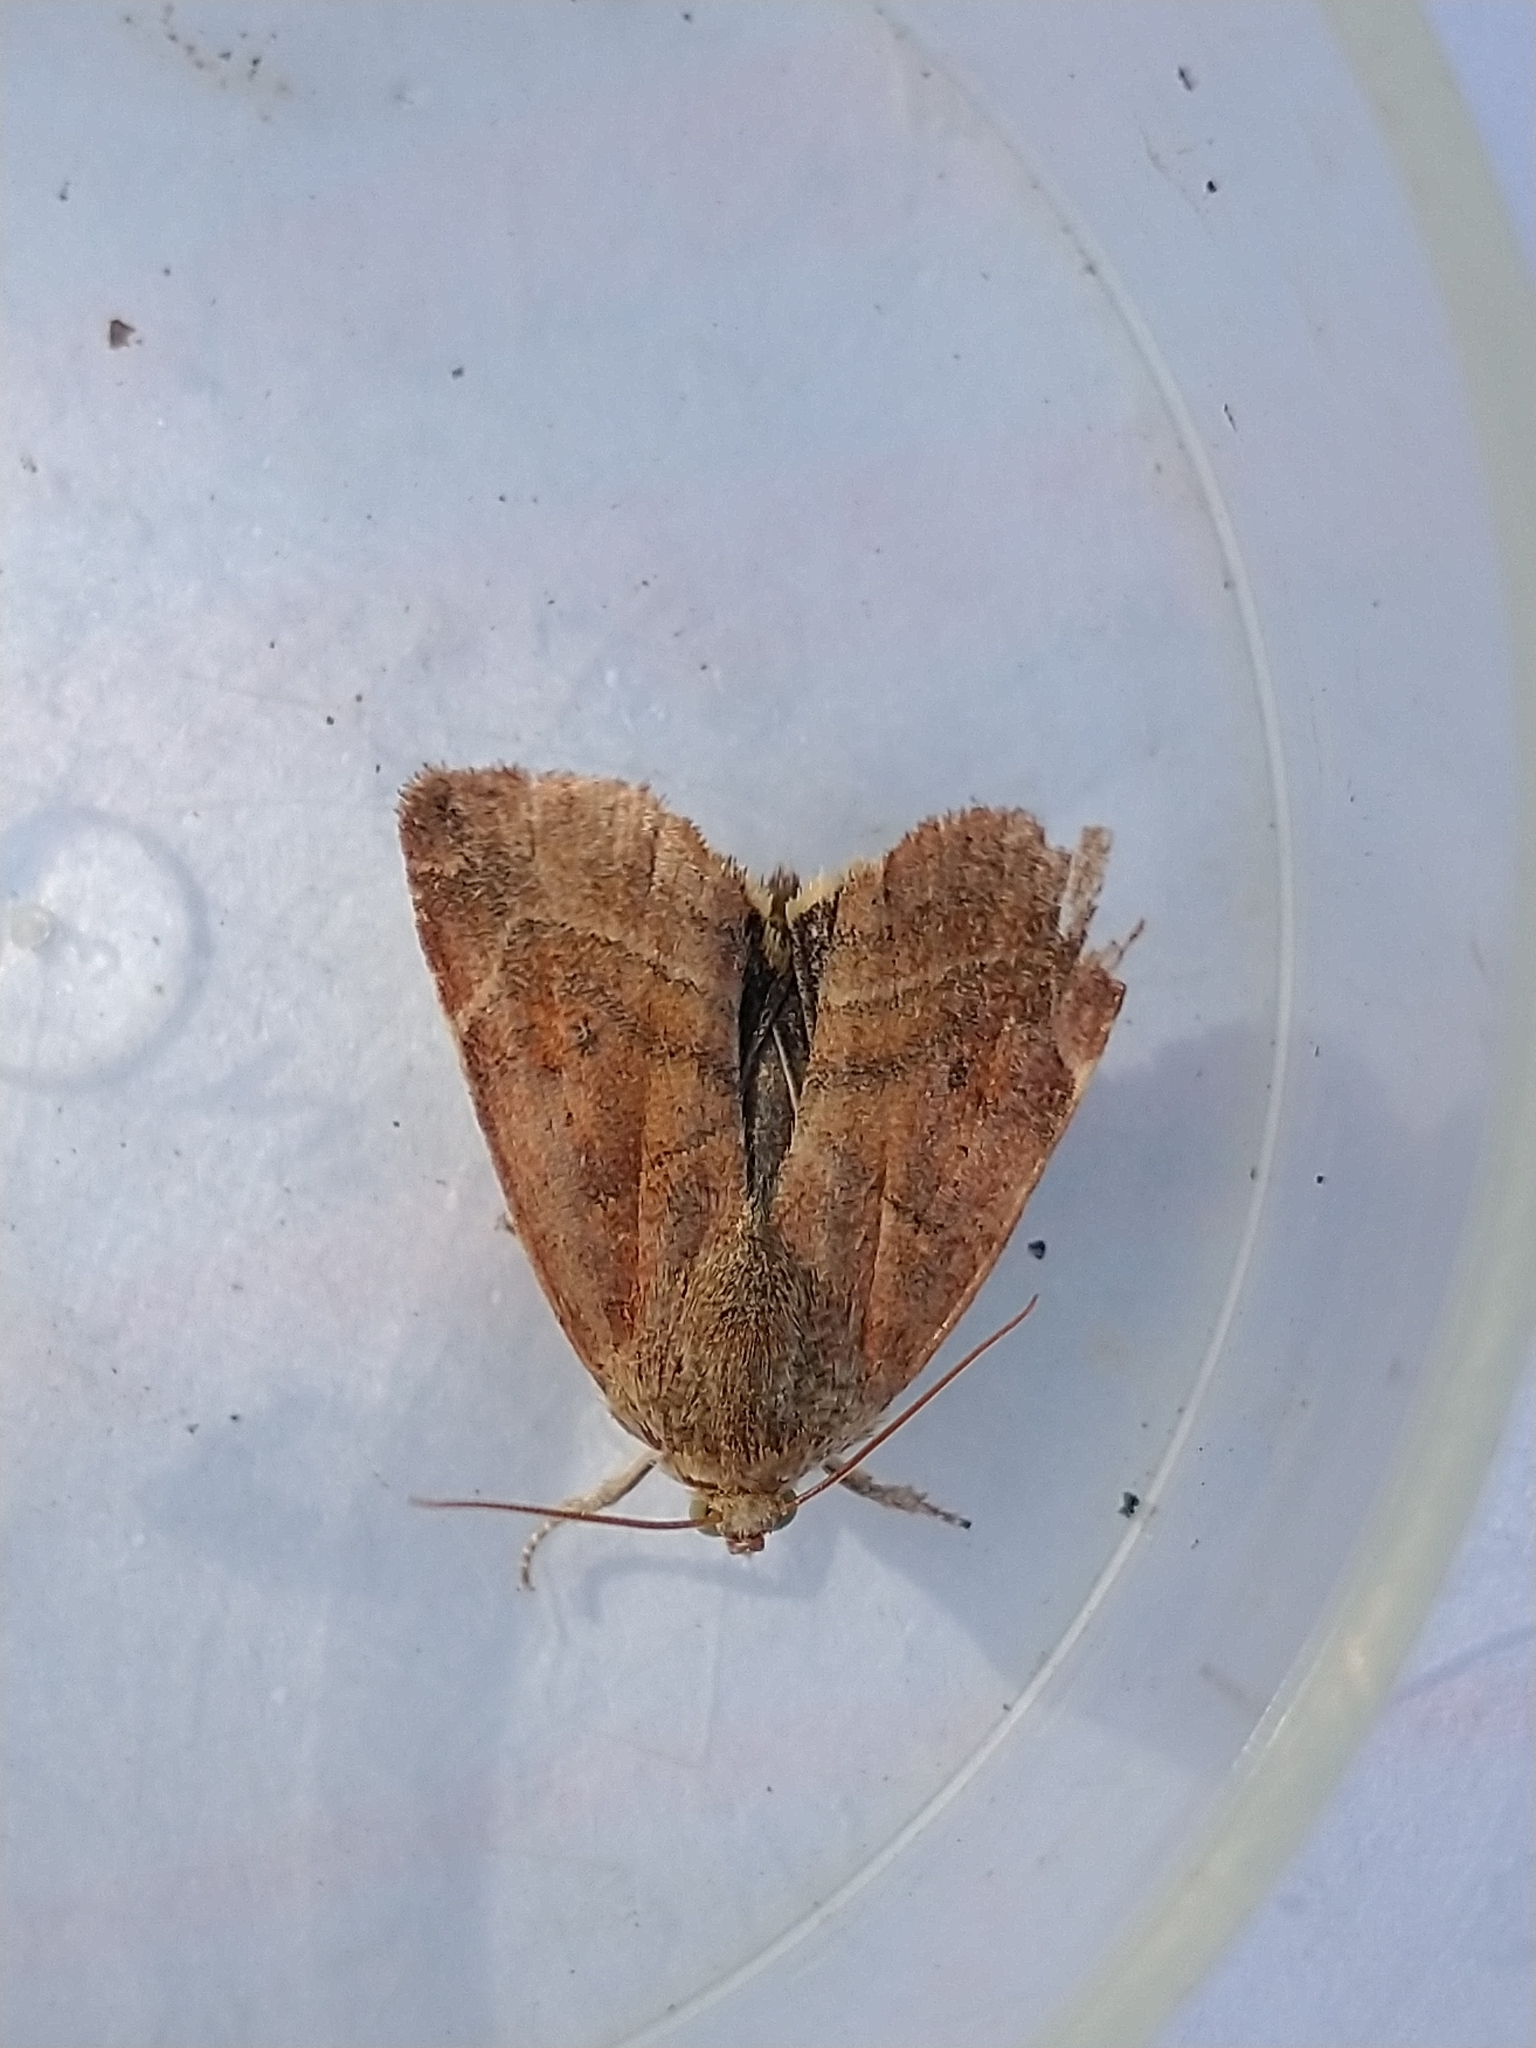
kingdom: Animalia
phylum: Arthropoda
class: Insecta
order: Lepidoptera
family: Noctuidae
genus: Cosmia
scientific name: Cosmia affinis
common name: Lesser-spotted pinion
